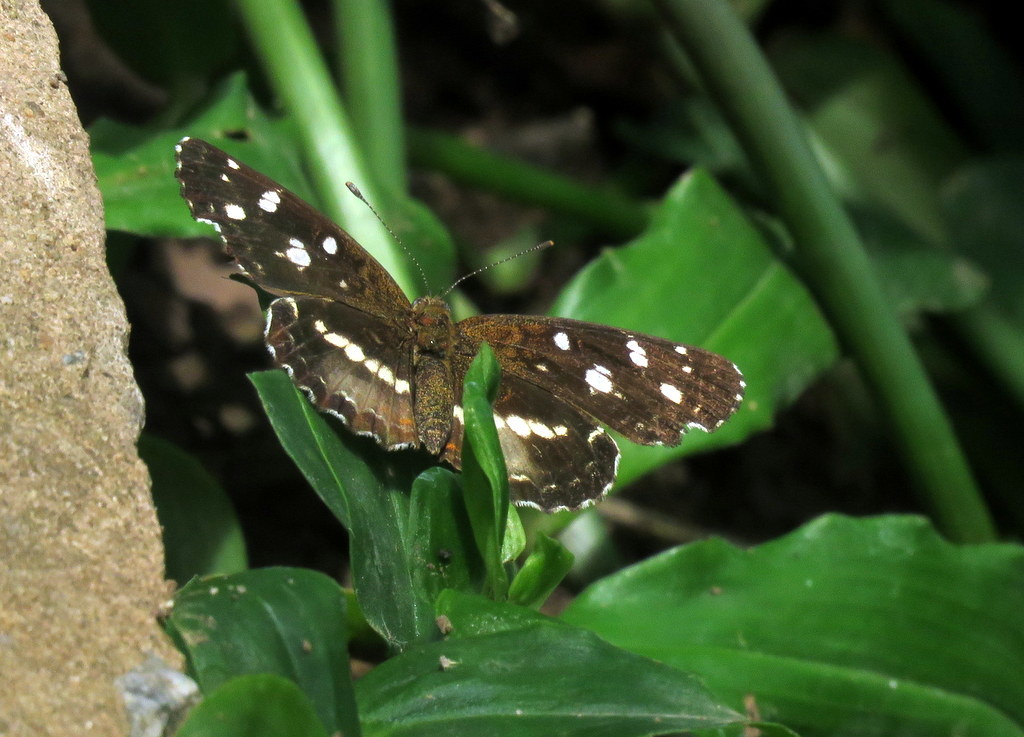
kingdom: Animalia
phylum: Arthropoda
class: Insecta
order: Lepidoptera
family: Nymphalidae
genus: Ortilia
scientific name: Ortilia ithra
